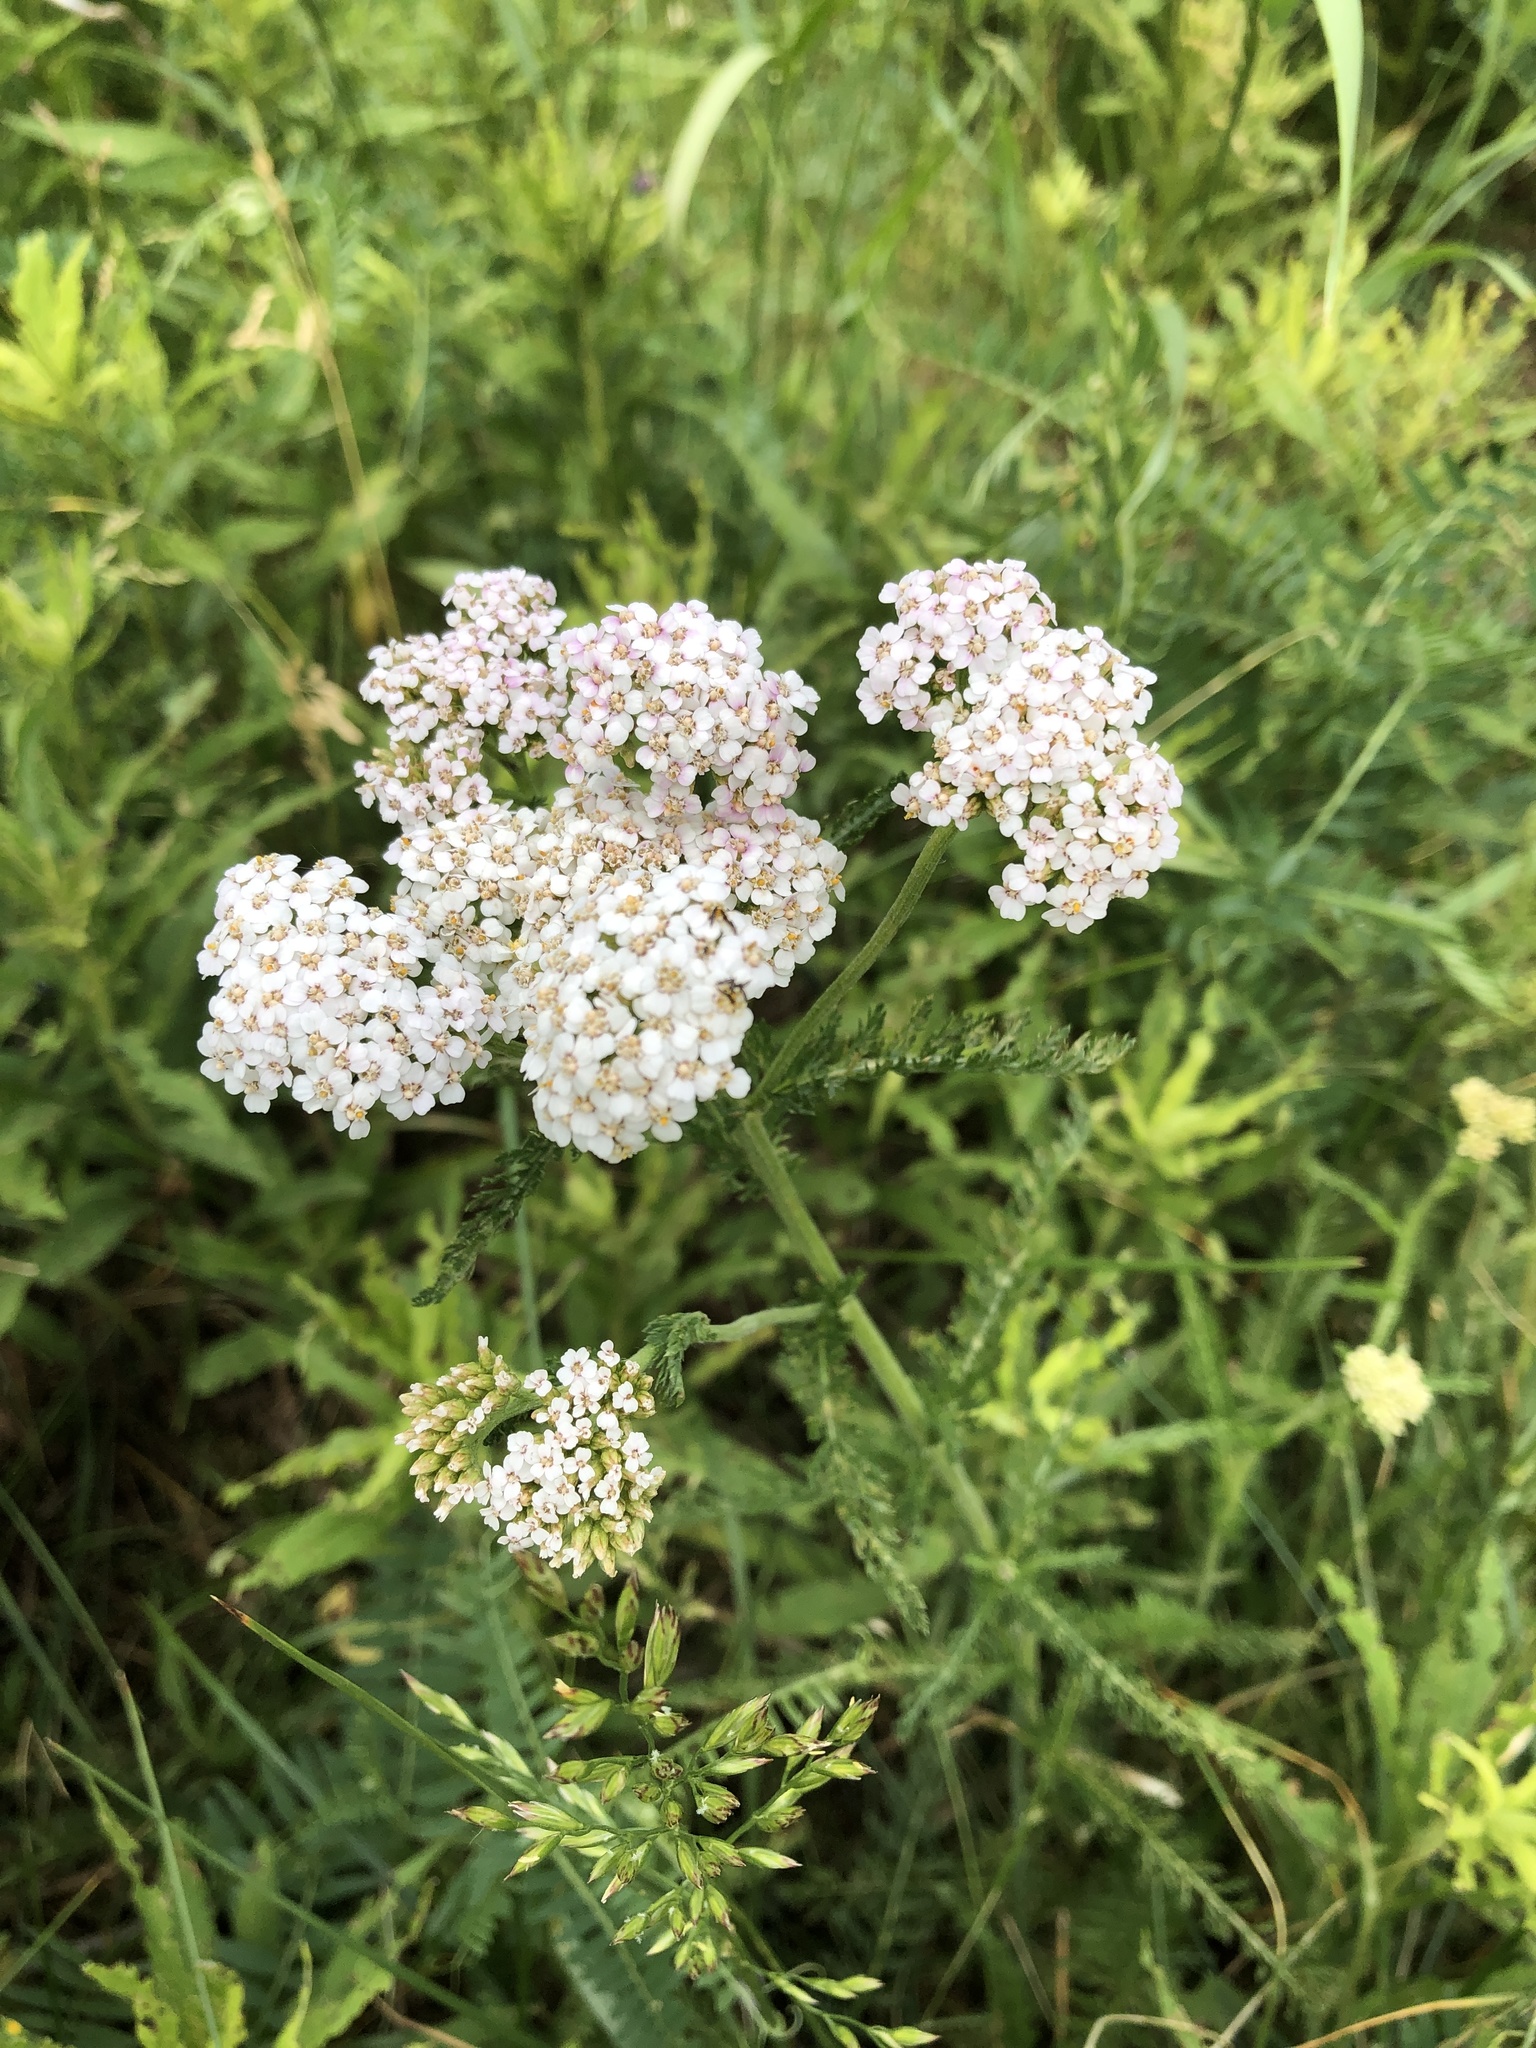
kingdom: Plantae
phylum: Tracheophyta
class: Magnoliopsida
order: Asterales
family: Asteraceae
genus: Achillea
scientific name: Achillea millefolium
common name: Yarrow
